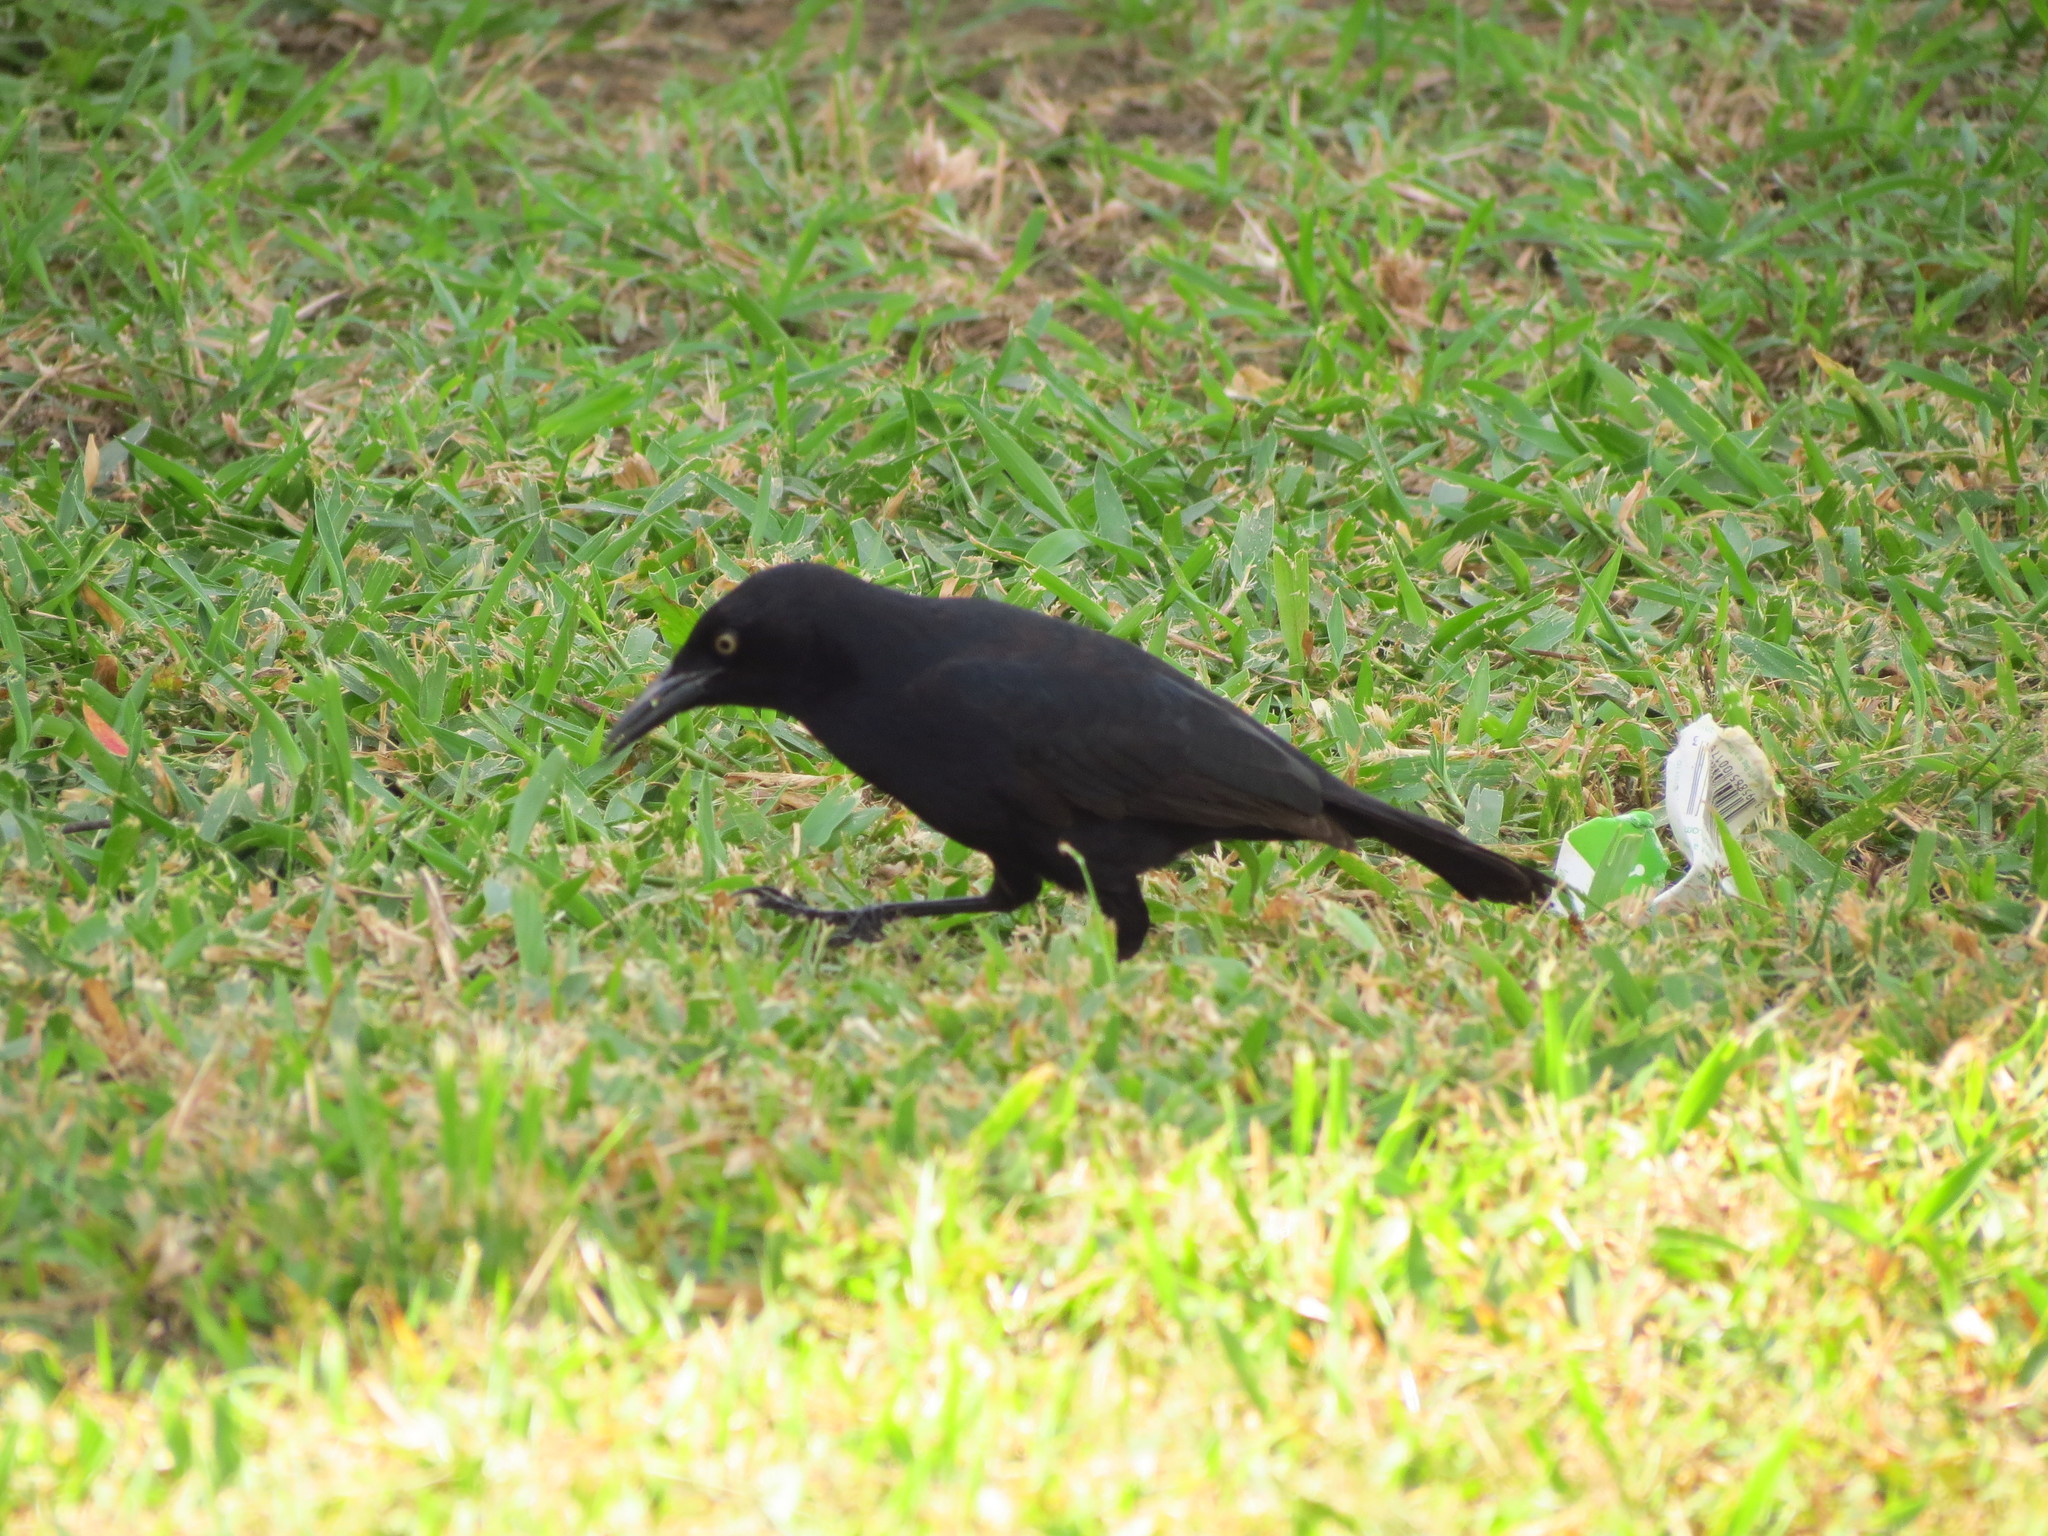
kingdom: Animalia
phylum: Chordata
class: Aves
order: Passeriformes
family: Icteridae
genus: Quiscalus
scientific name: Quiscalus niger
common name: Greater antillean grackle
